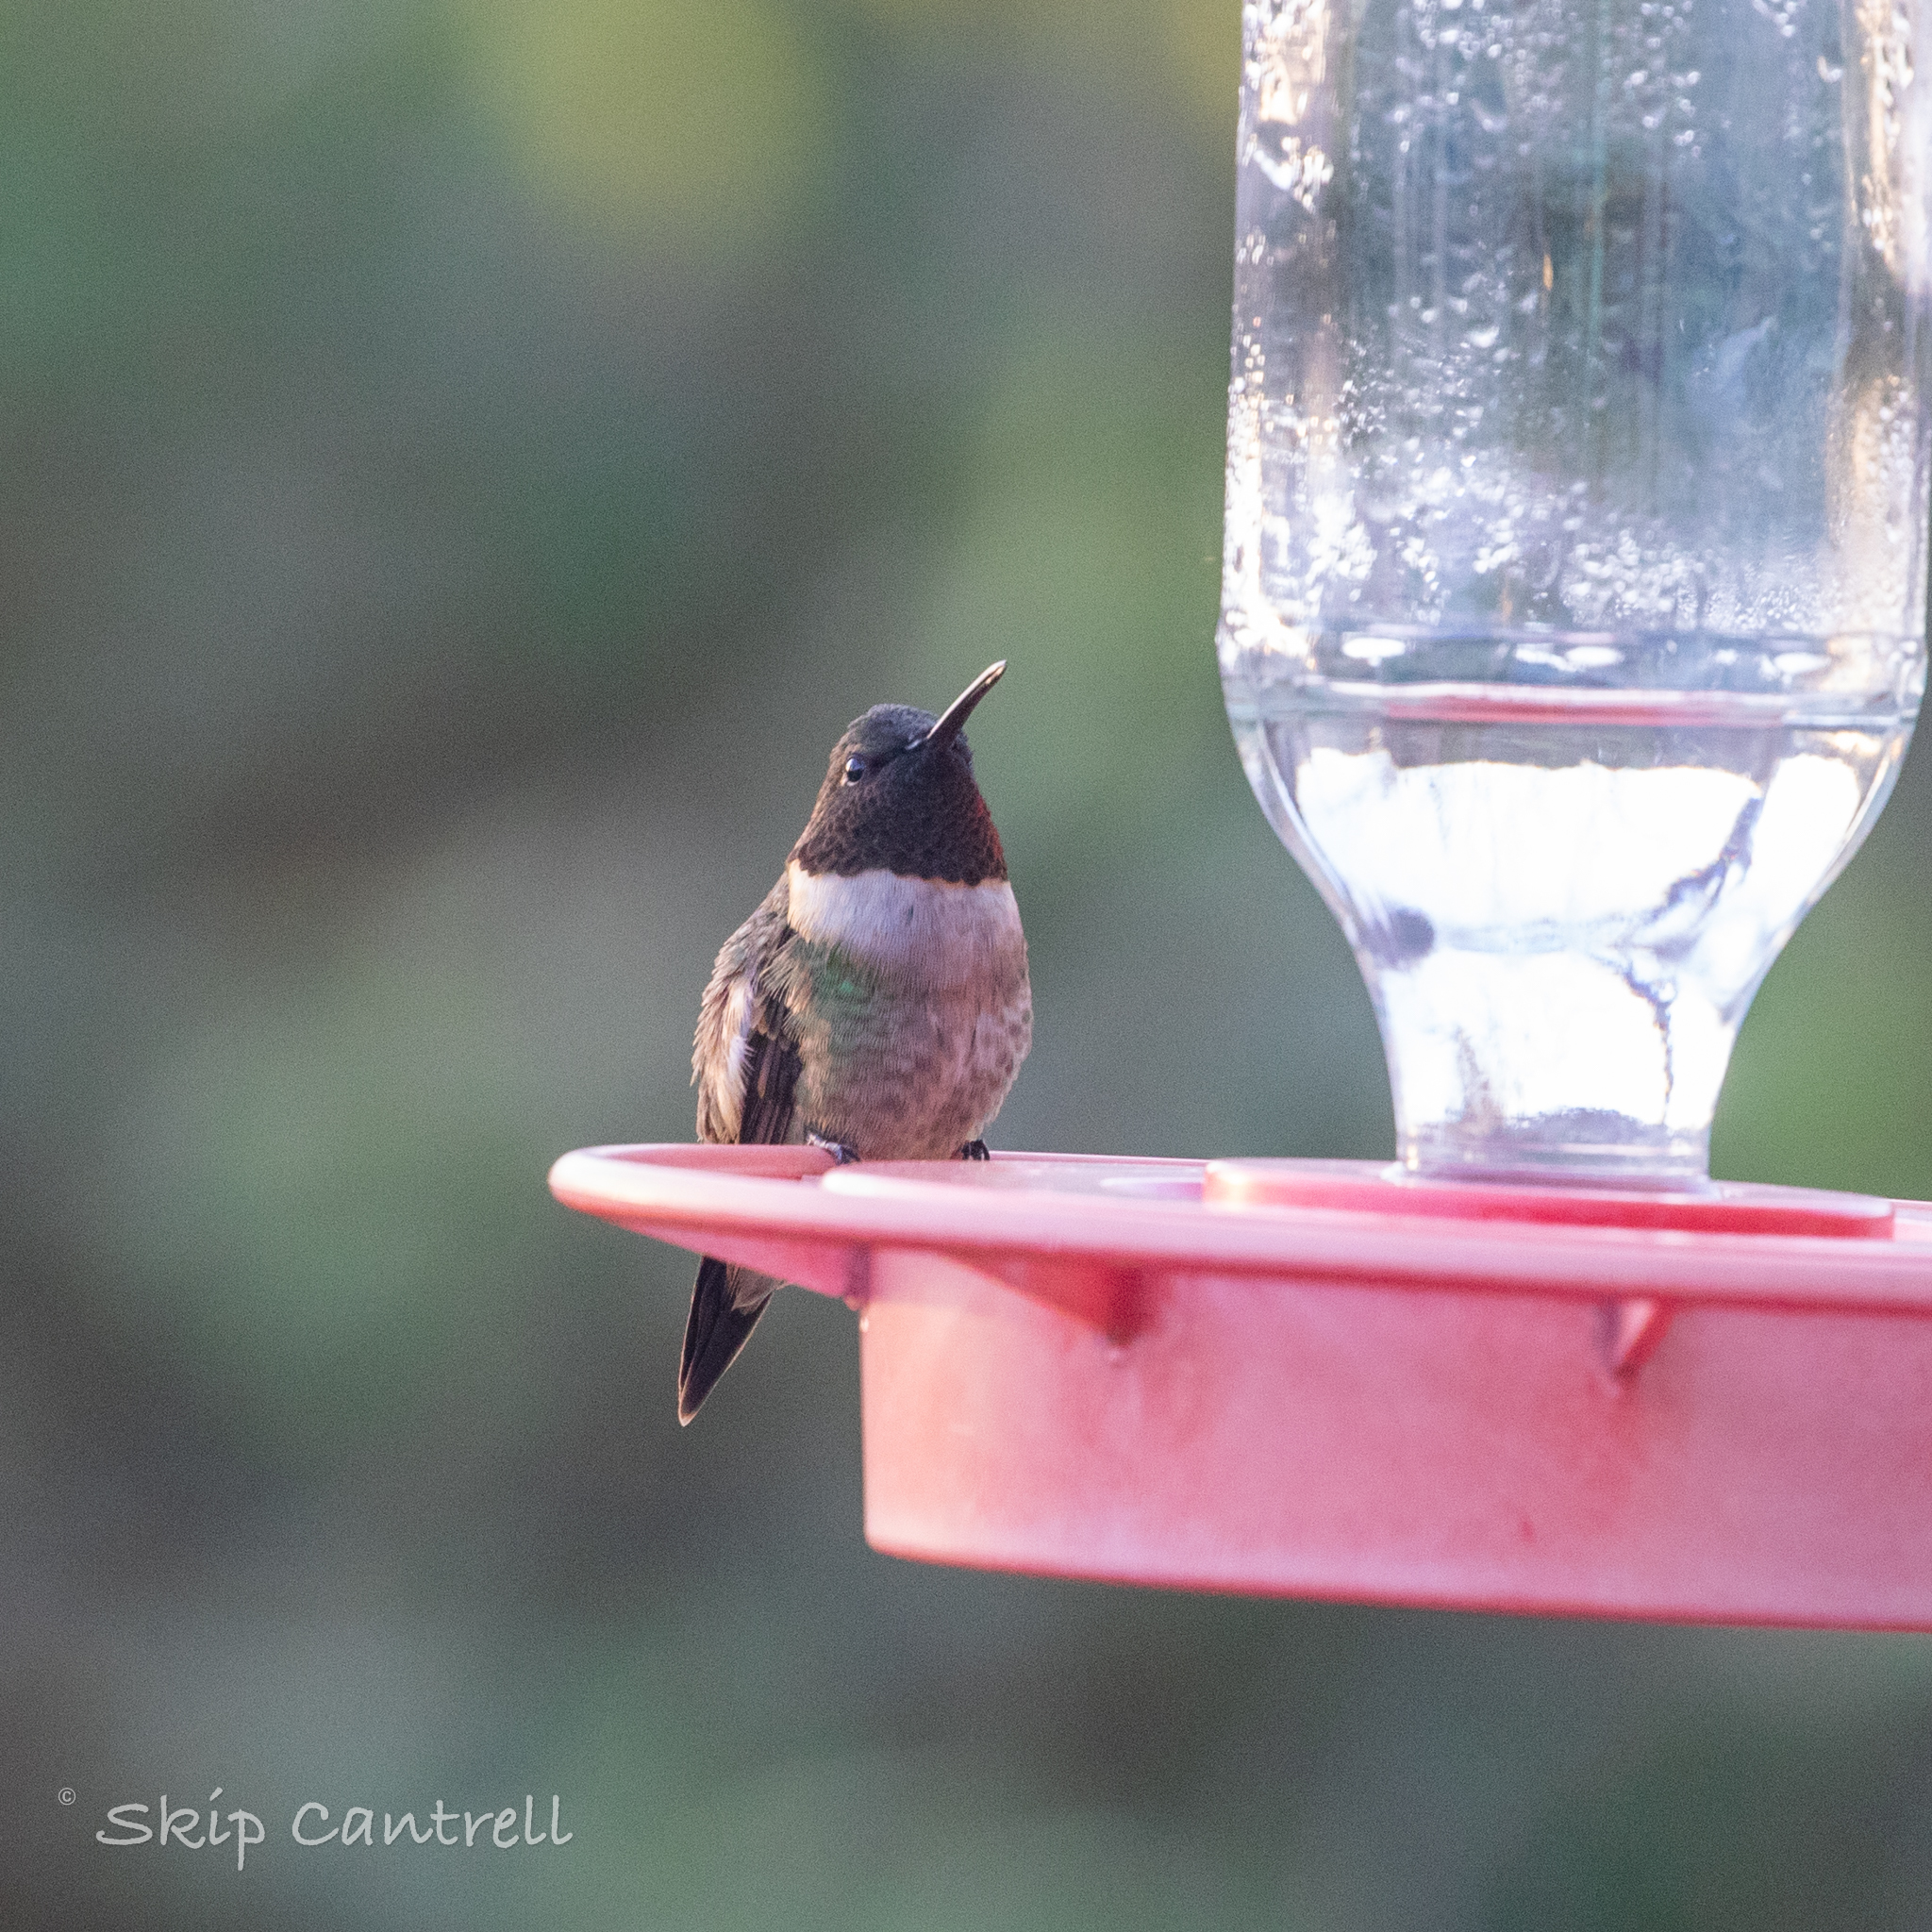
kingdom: Animalia
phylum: Chordata
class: Aves
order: Apodiformes
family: Trochilidae
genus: Archilochus
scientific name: Archilochus colubris
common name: Ruby-throated hummingbird
